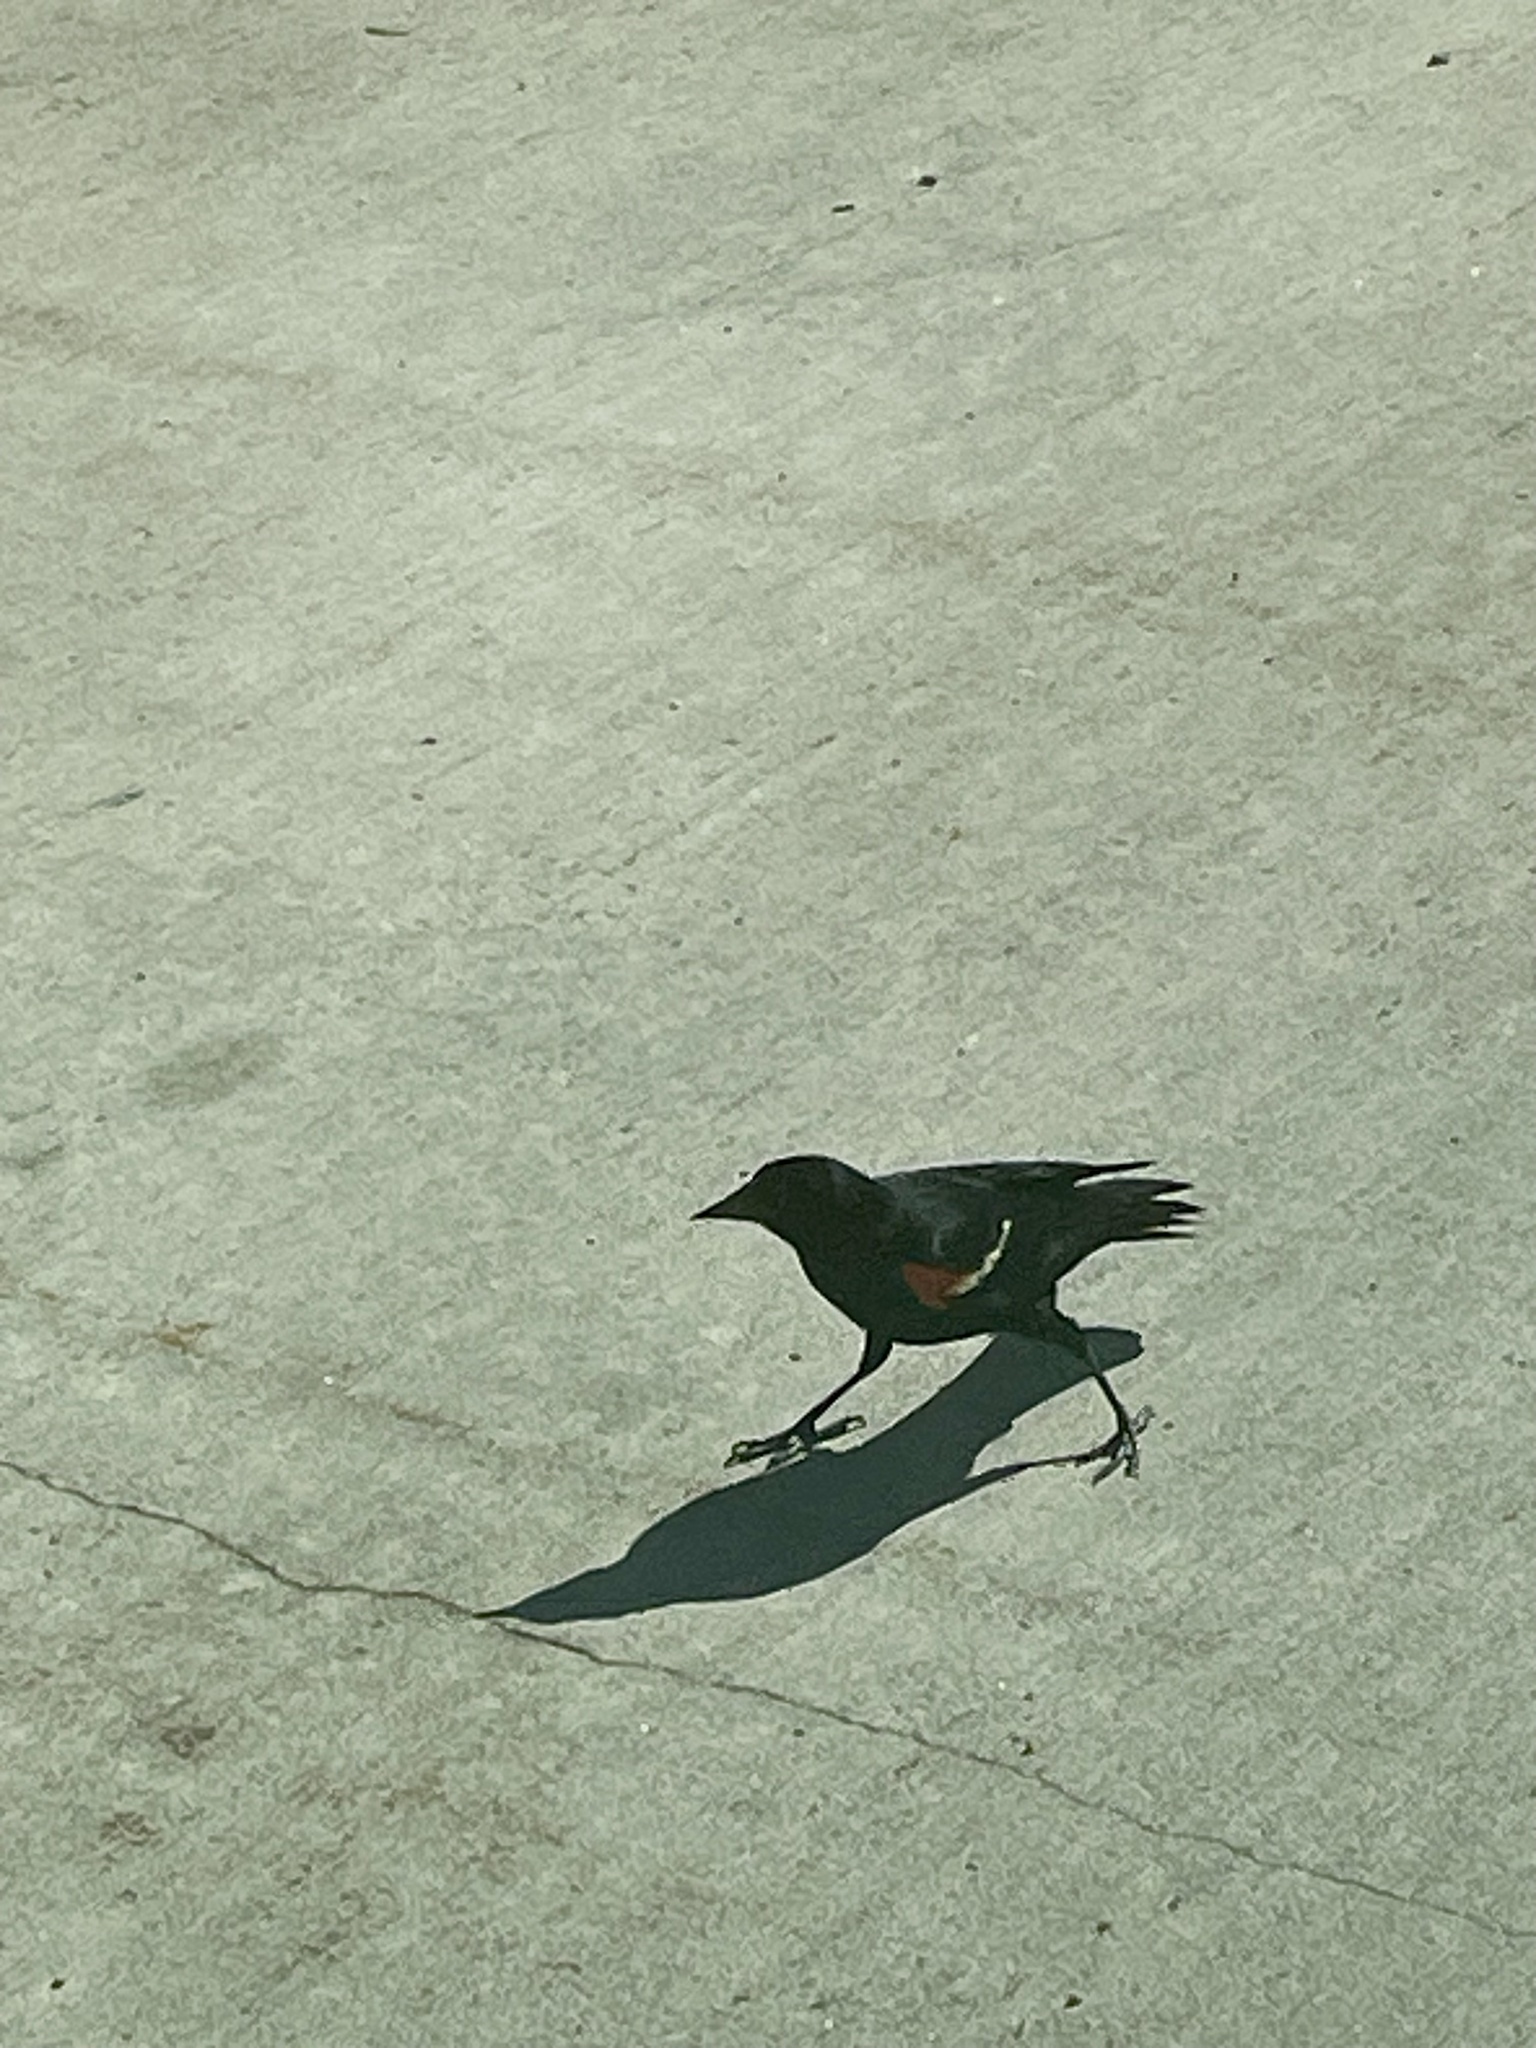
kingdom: Animalia
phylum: Chordata
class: Aves
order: Passeriformes
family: Icteridae
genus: Agelaius
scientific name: Agelaius phoeniceus
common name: Red-winged blackbird
